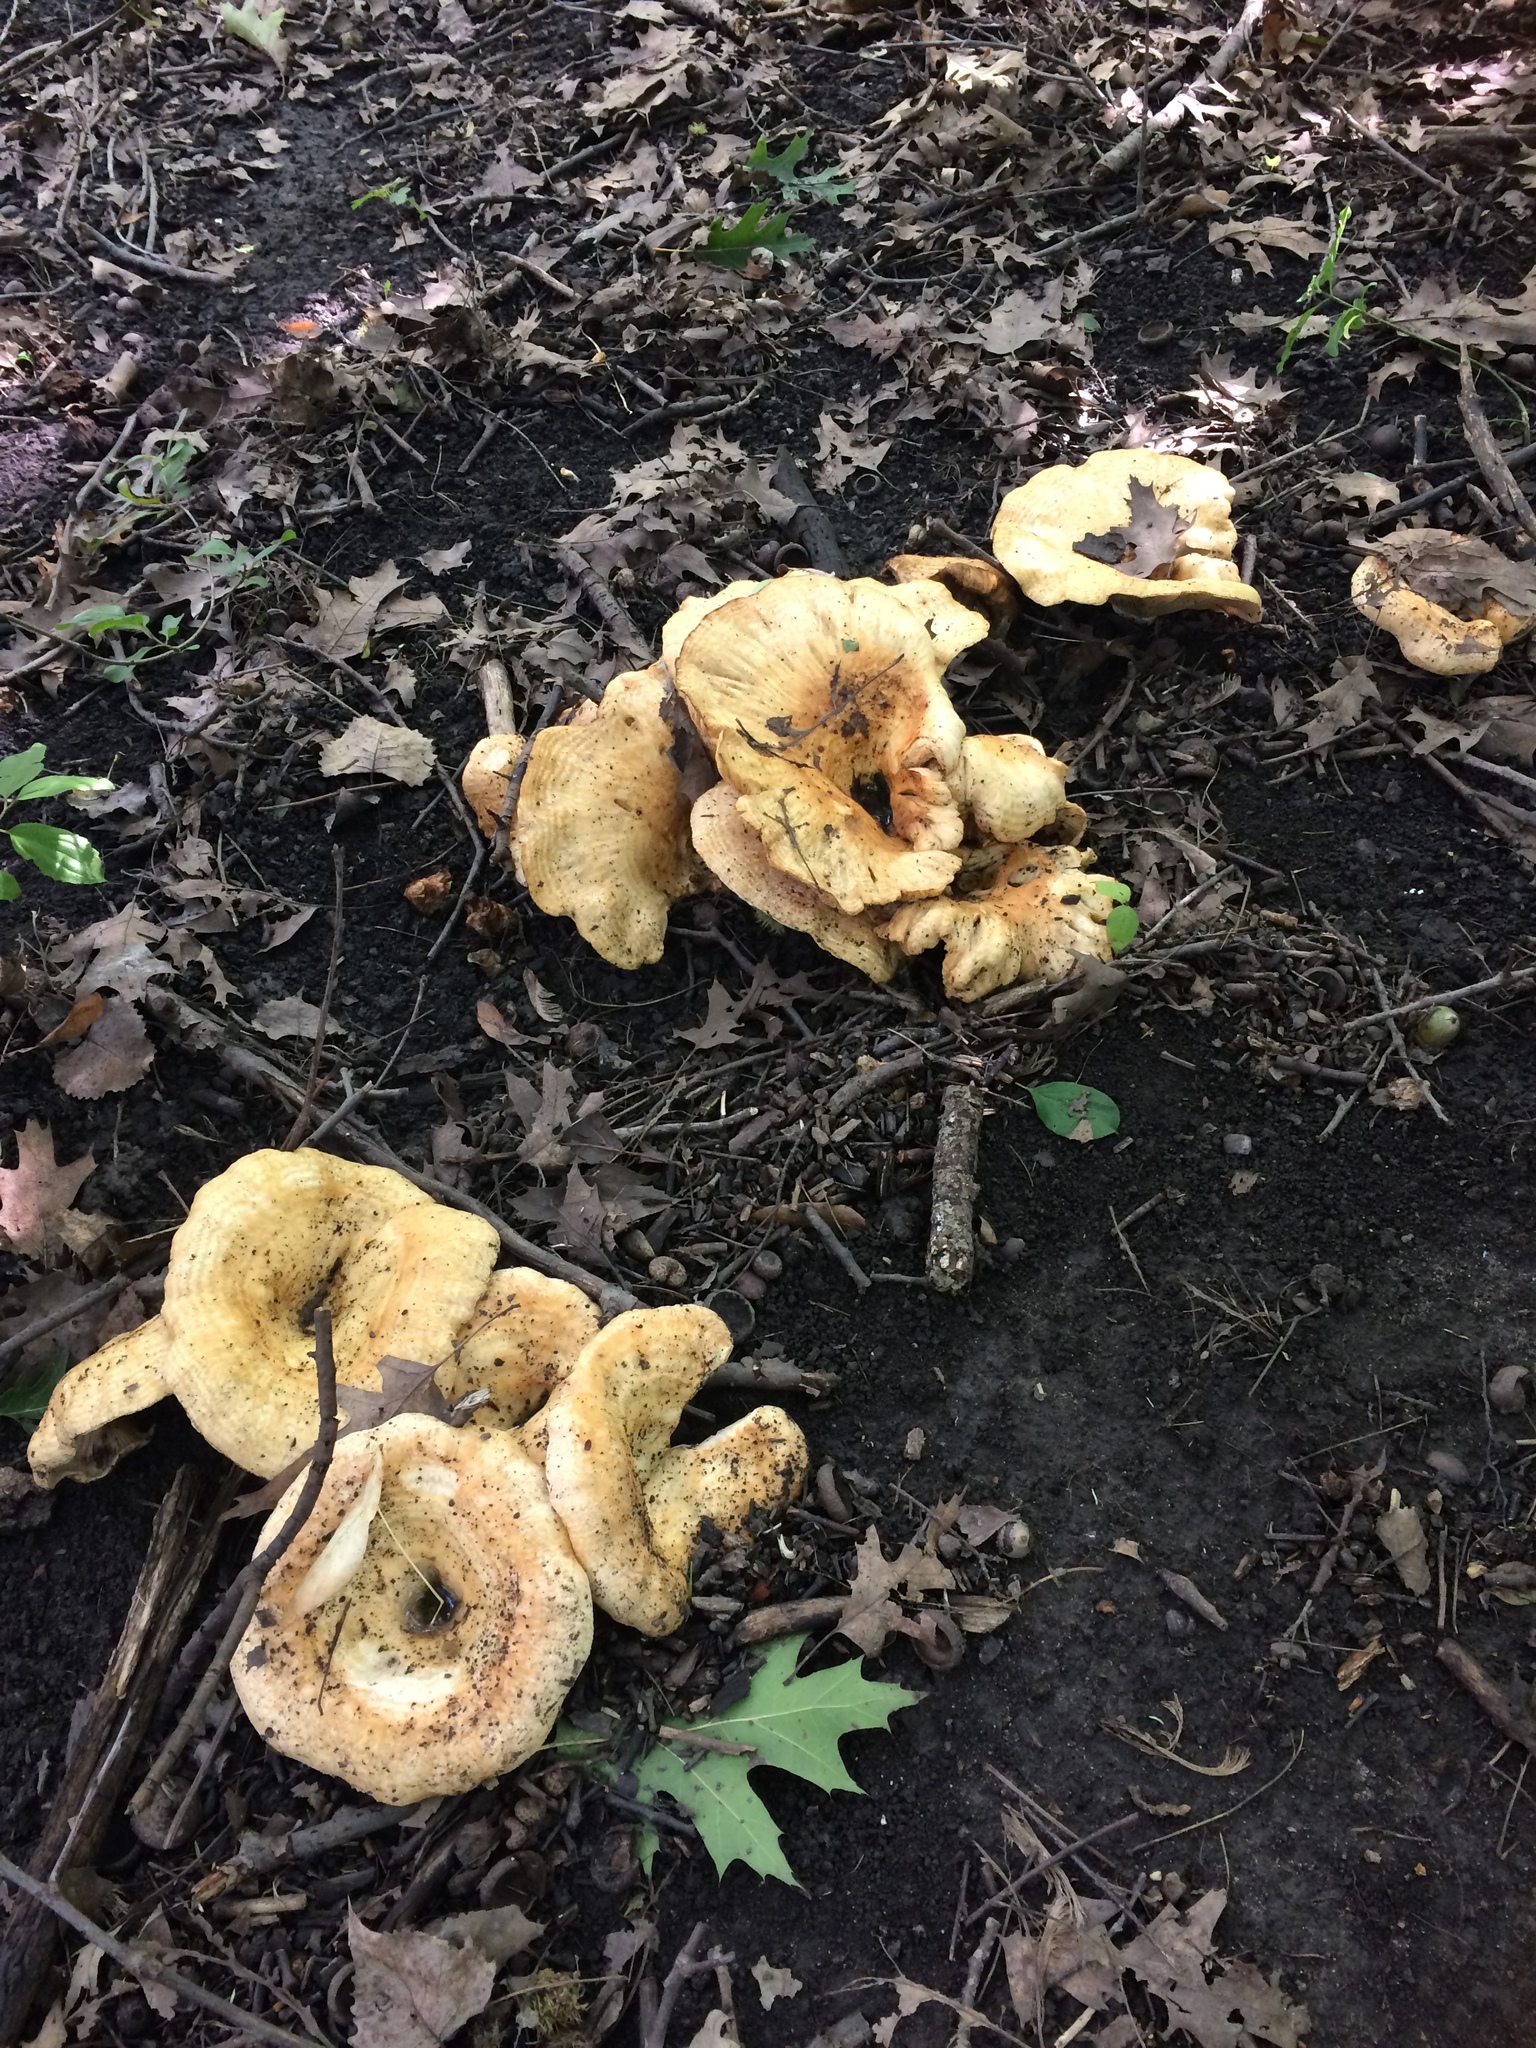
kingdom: Fungi
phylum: Basidiomycota
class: Agaricomycetes
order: Russulales
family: Russulaceae
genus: Lactarius
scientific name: Lactarius psammicola
